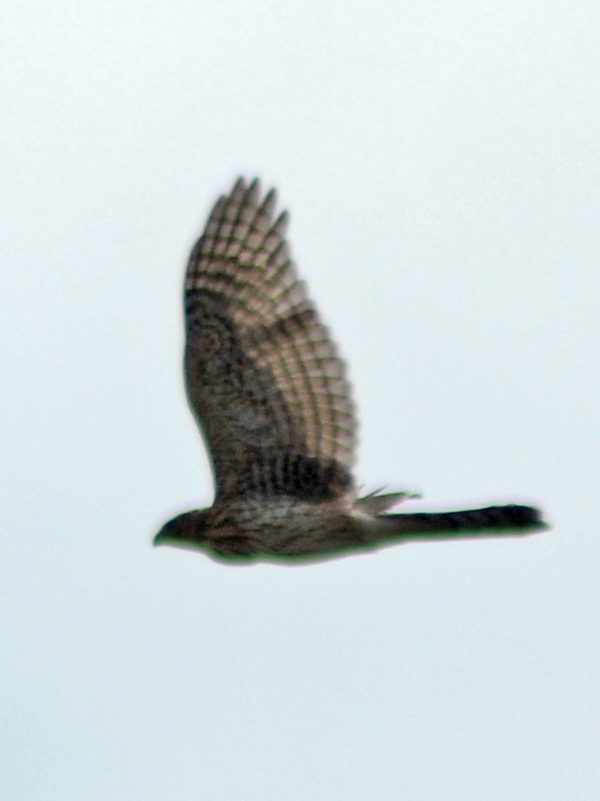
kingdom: Animalia
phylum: Chordata
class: Aves
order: Accipitriformes
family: Accipitridae
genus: Accipiter
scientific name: Accipiter cooperii
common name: Cooper's hawk
